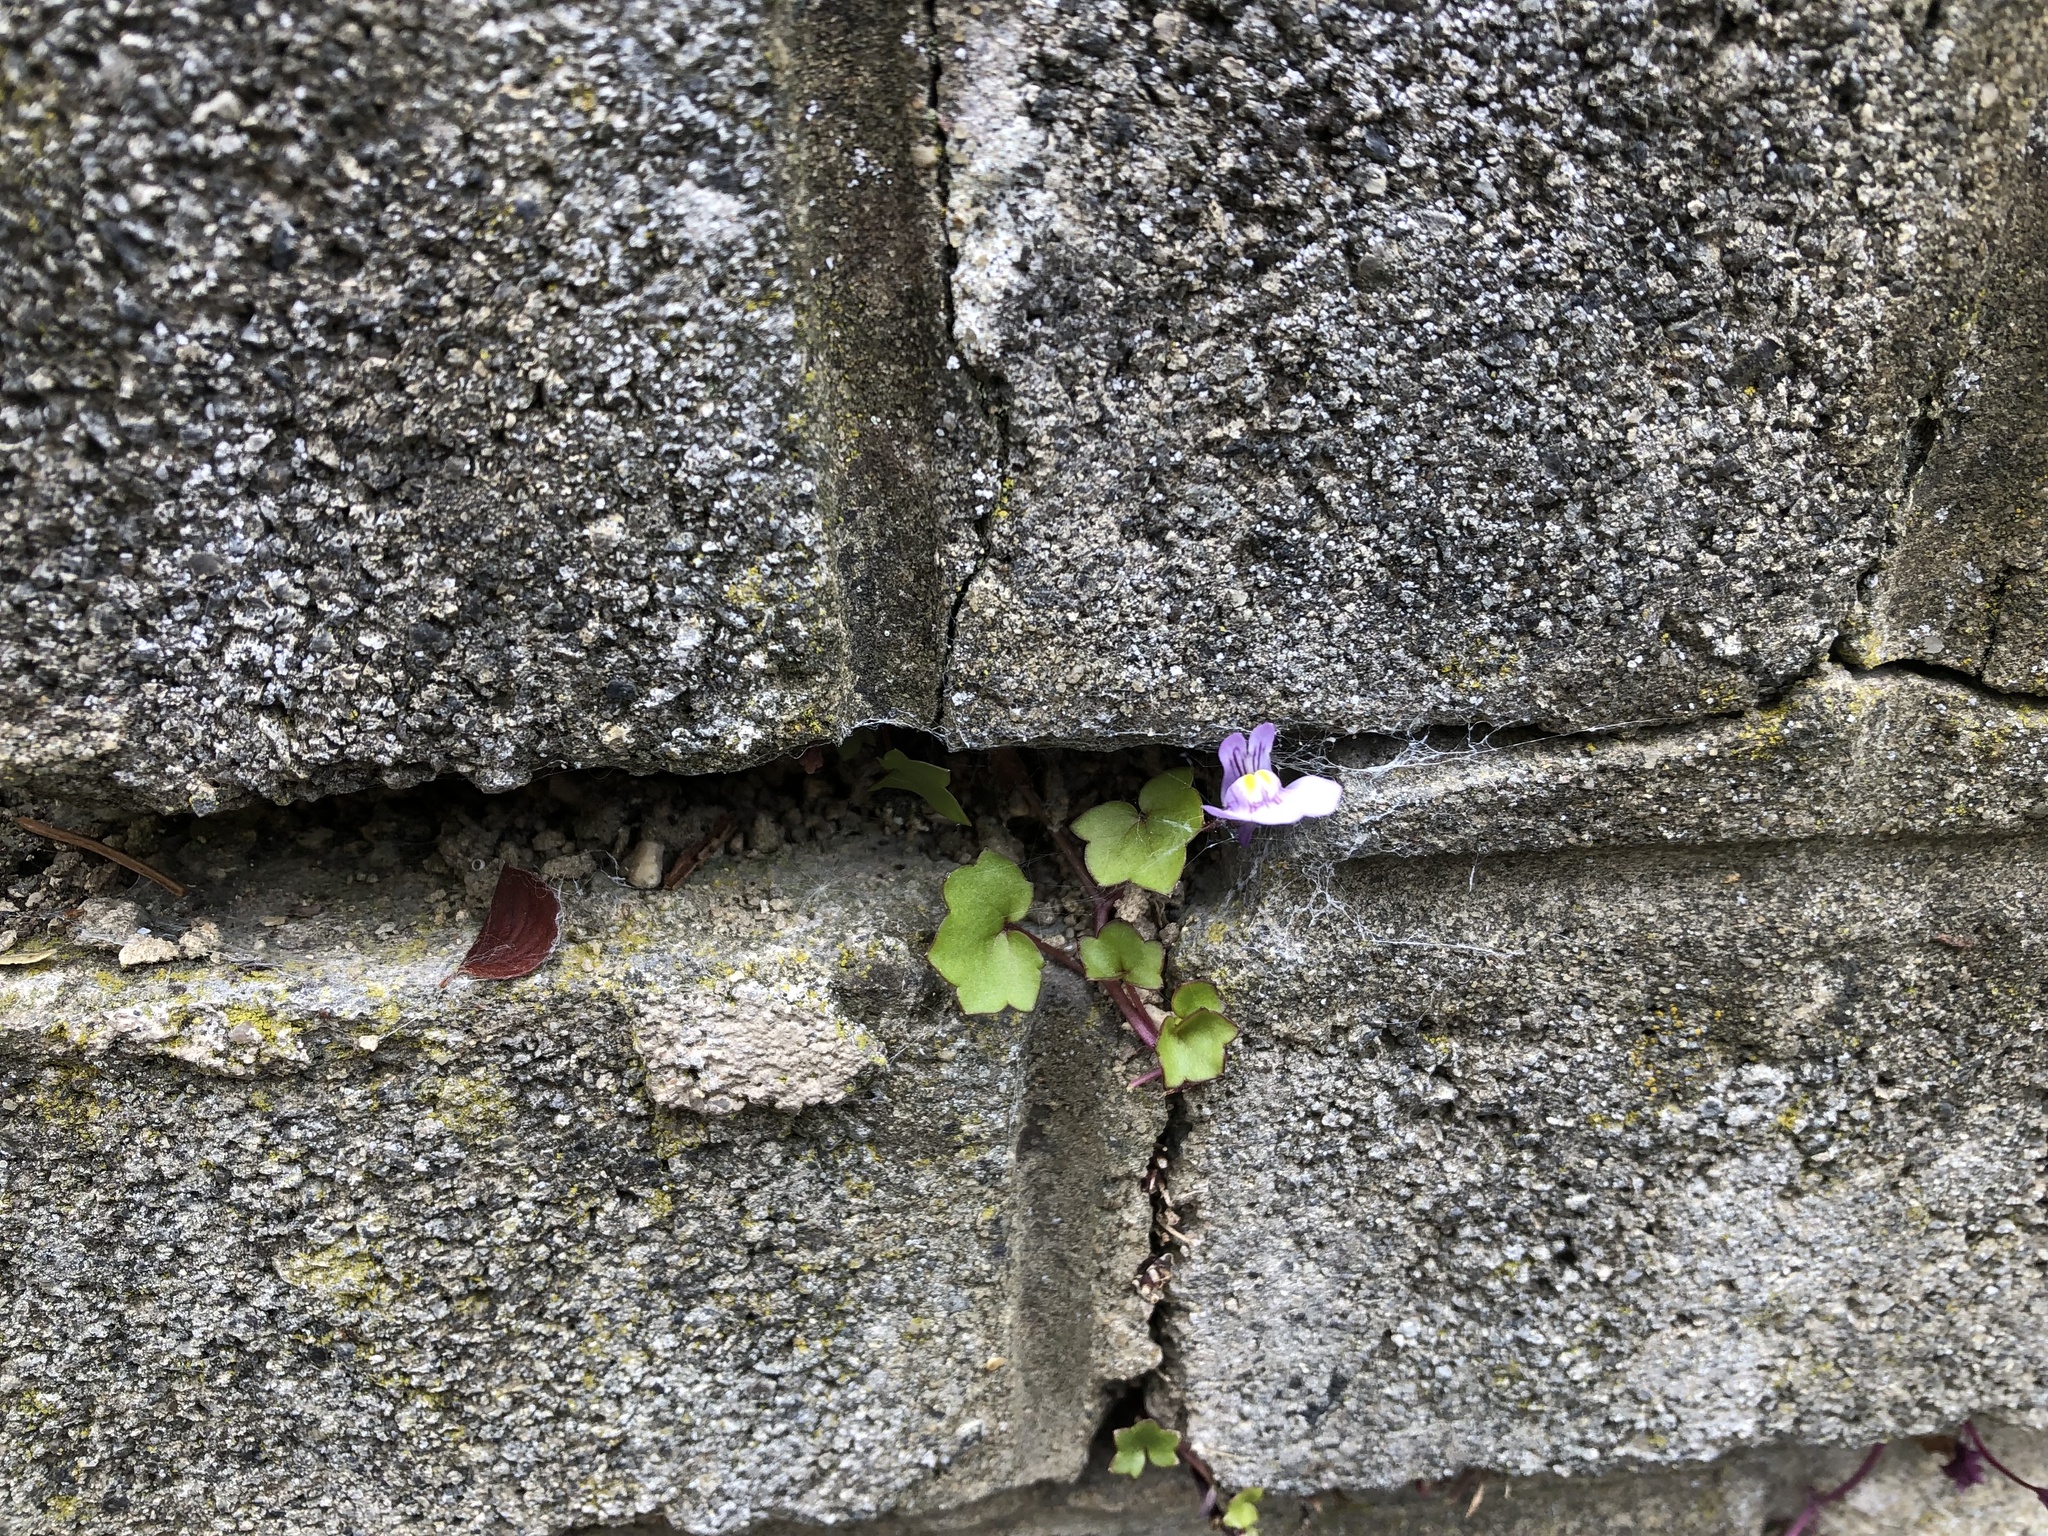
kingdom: Plantae
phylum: Tracheophyta
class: Magnoliopsida
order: Lamiales
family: Plantaginaceae
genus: Cymbalaria
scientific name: Cymbalaria muralis
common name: Ivy-leaved toadflax
